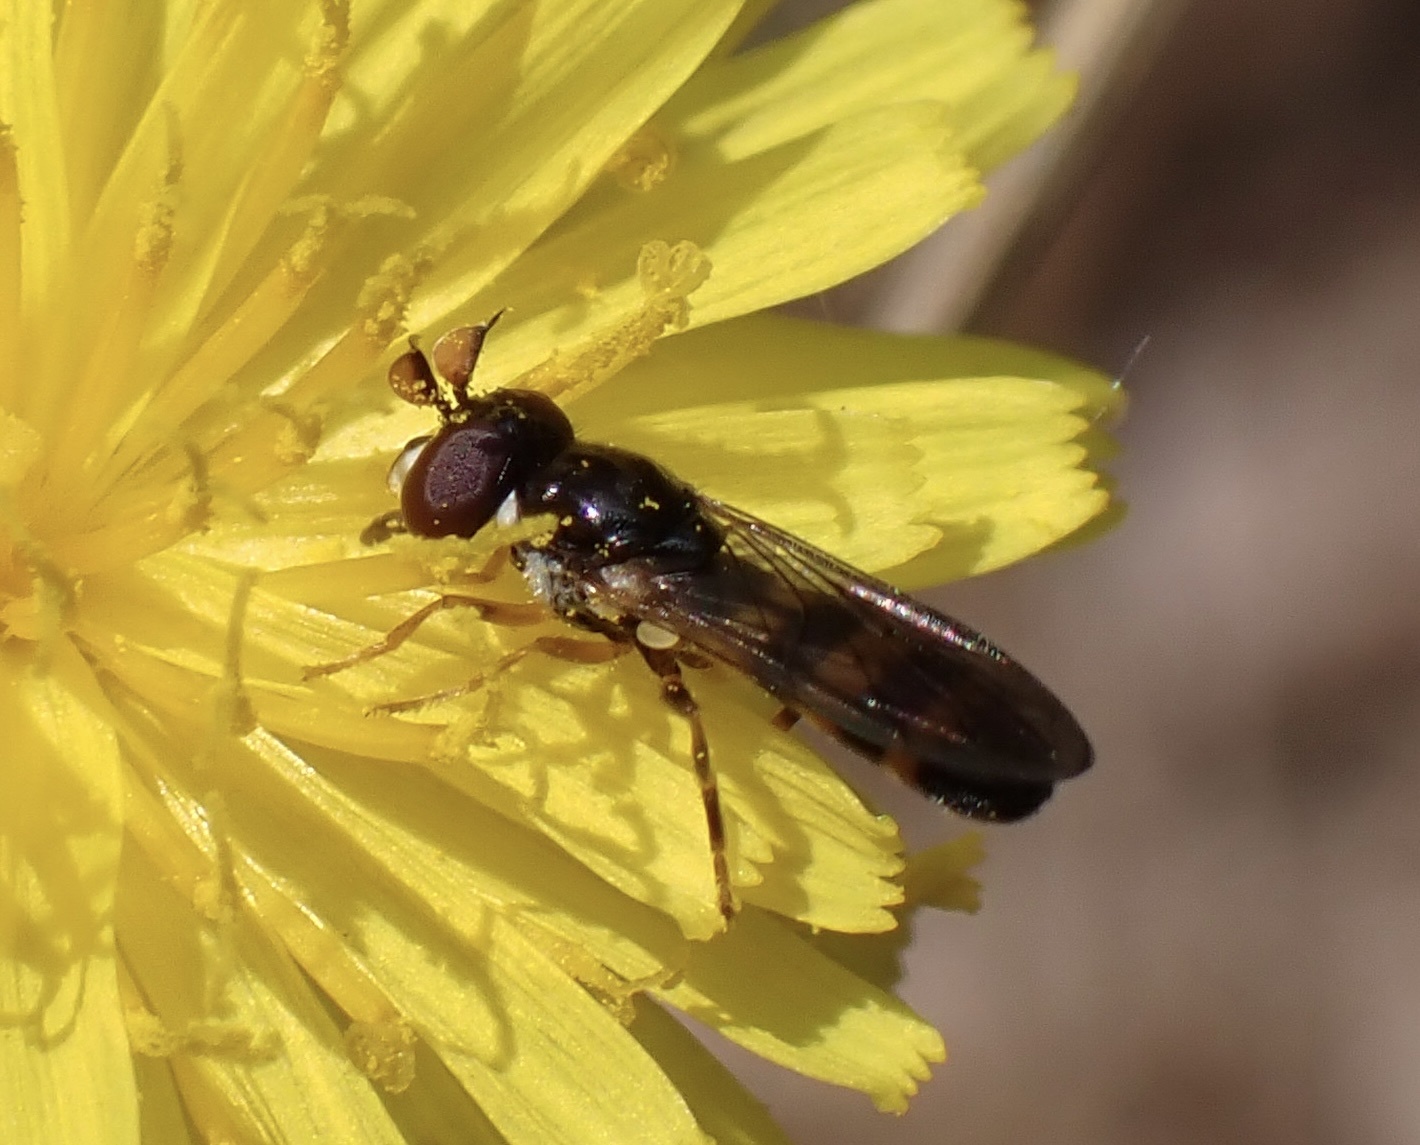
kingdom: Animalia
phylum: Arthropoda
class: Insecta
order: Diptera
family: Syrphidae
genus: Pelecocera
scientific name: Pelecocera tricincta
